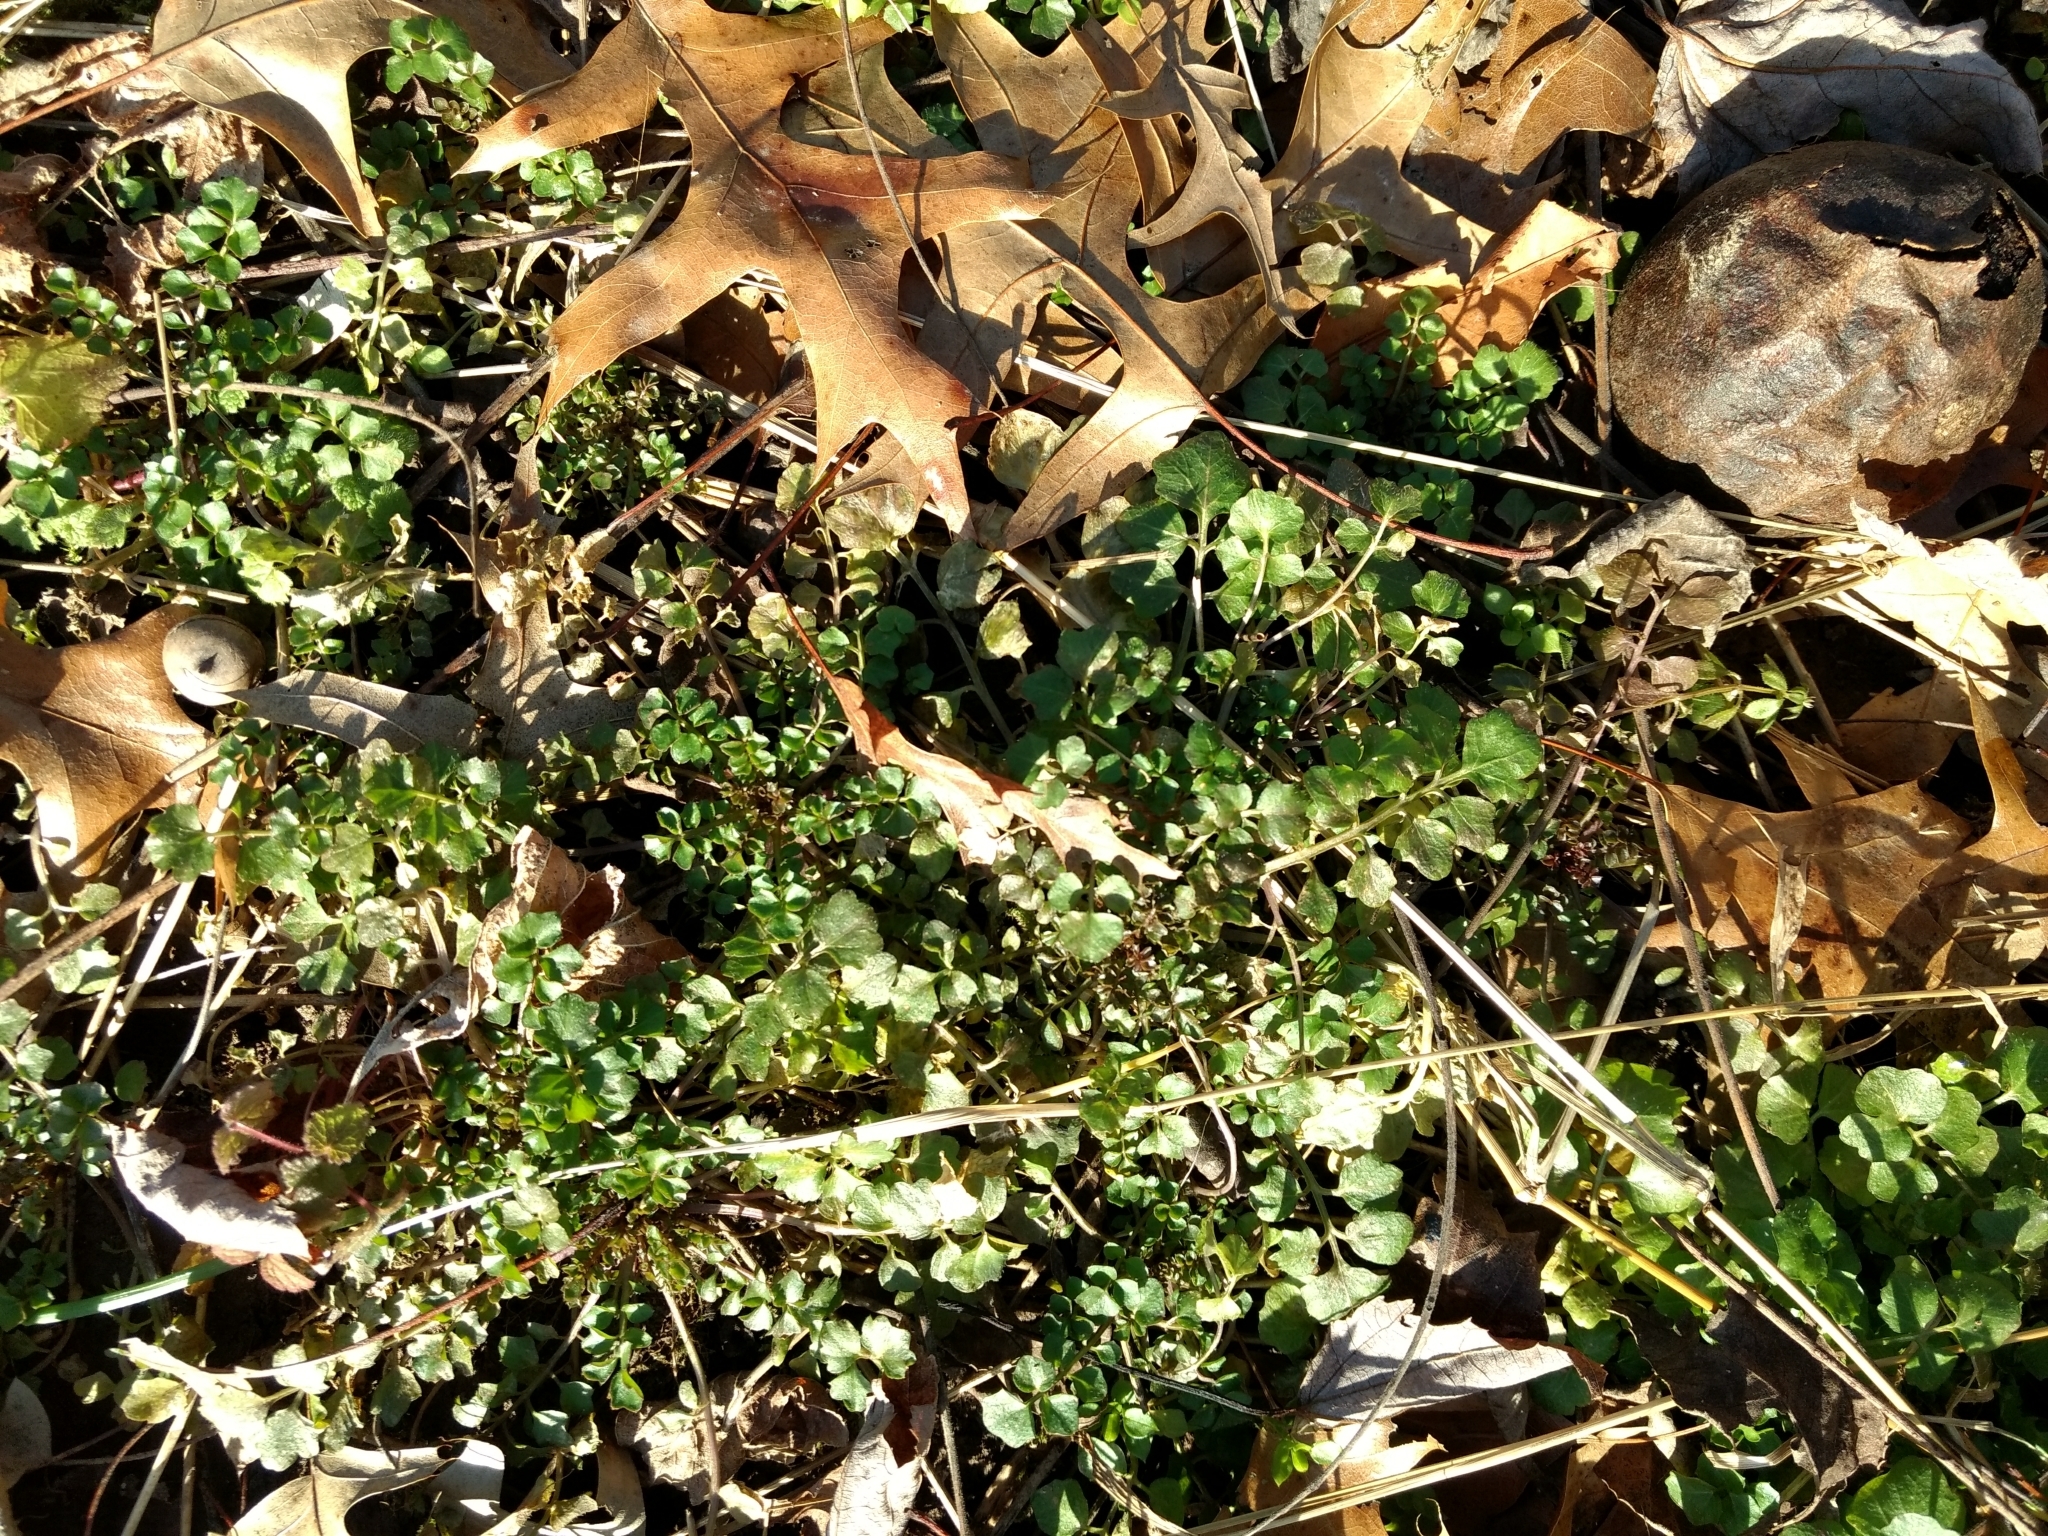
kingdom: Plantae
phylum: Tracheophyta
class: Magnoliopsida
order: Brassicales
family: Brassicaceae
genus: Cardamine
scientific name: Cardamine hirsuta
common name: Hairy bittercress
